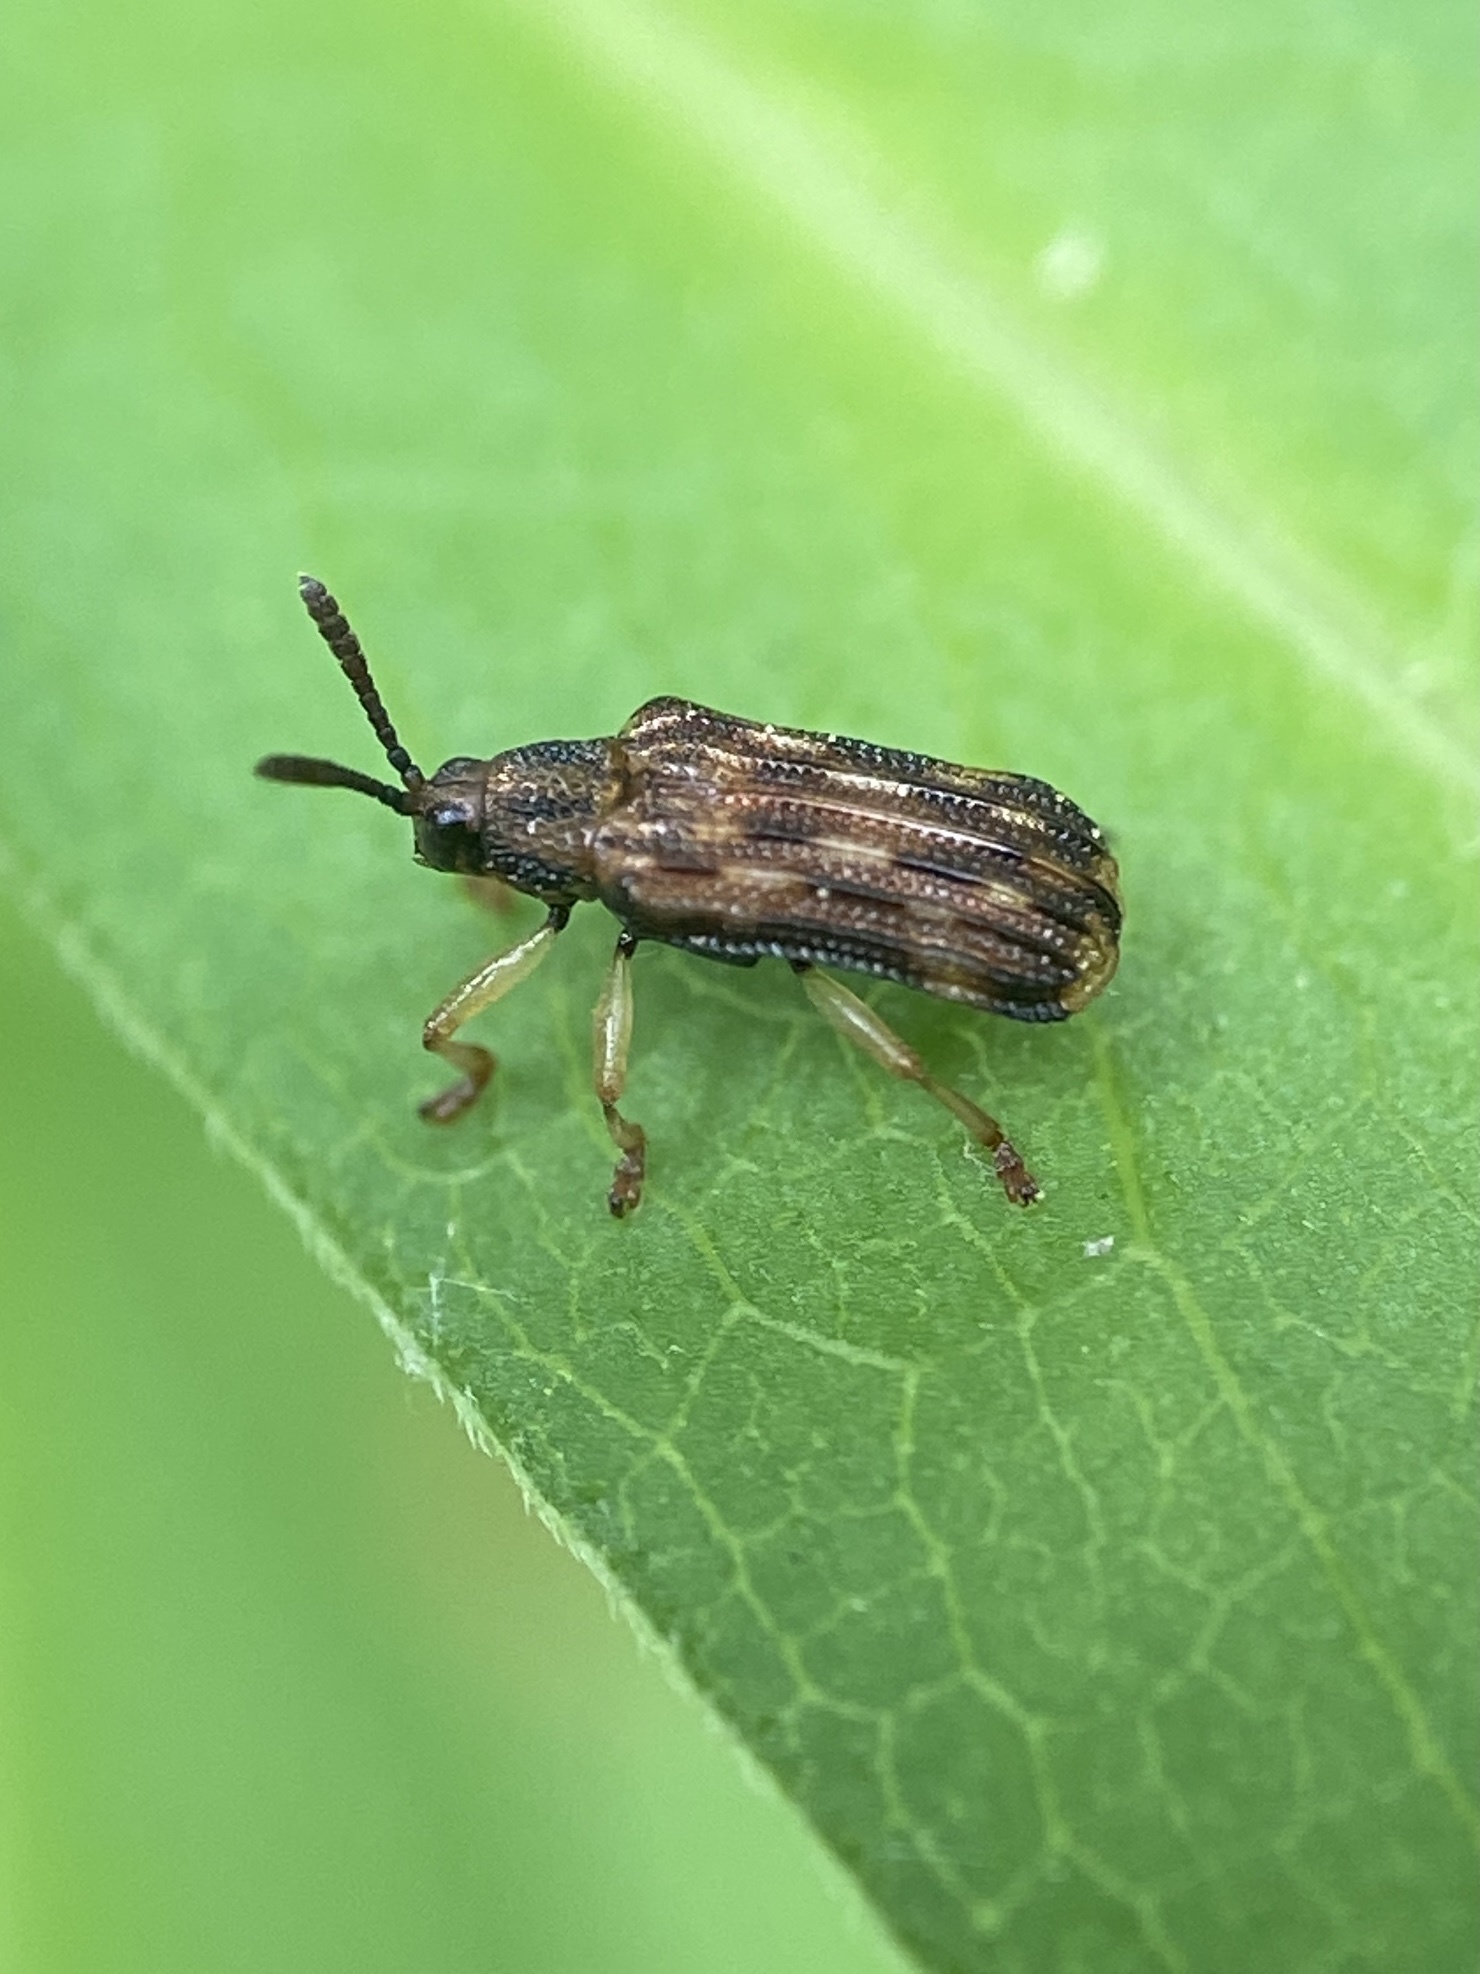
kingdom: Animalia
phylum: Arthropoda
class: Insecta
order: Coleoptera
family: Chrysomelidae
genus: Sumitrosis
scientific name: Sumitrosis inaequalis
